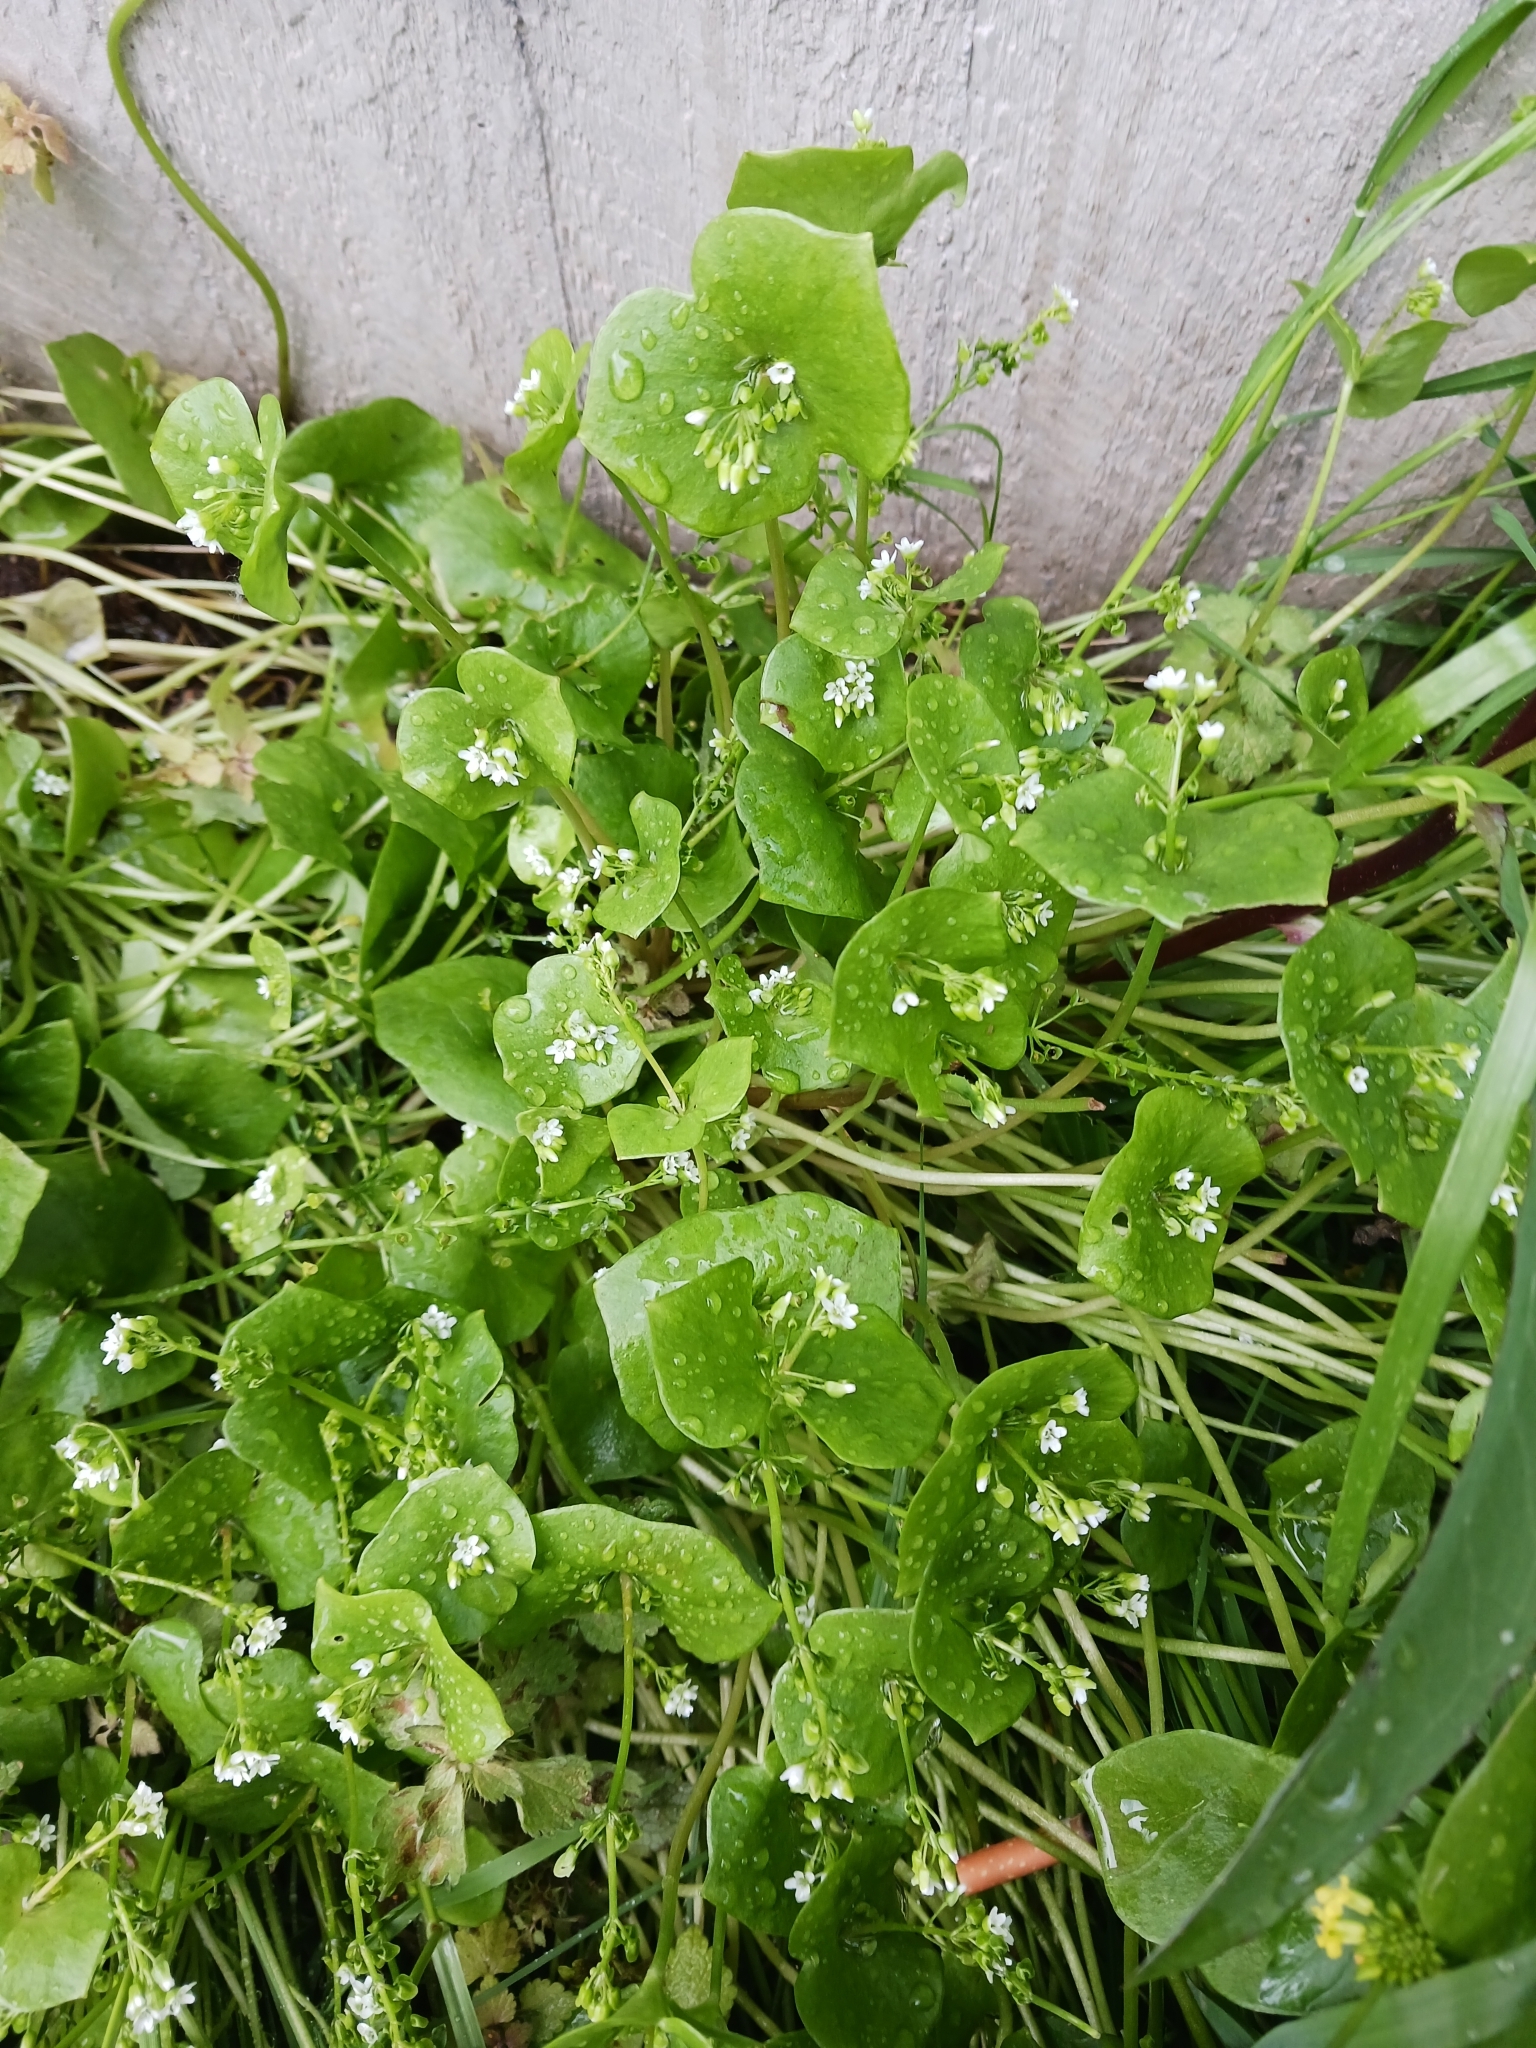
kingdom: Plantae
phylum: Tracheophyta
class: Magnoliopsida
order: Caryophyllales
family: Montiaceae
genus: Claytonia
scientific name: Claytonia perfoliata
